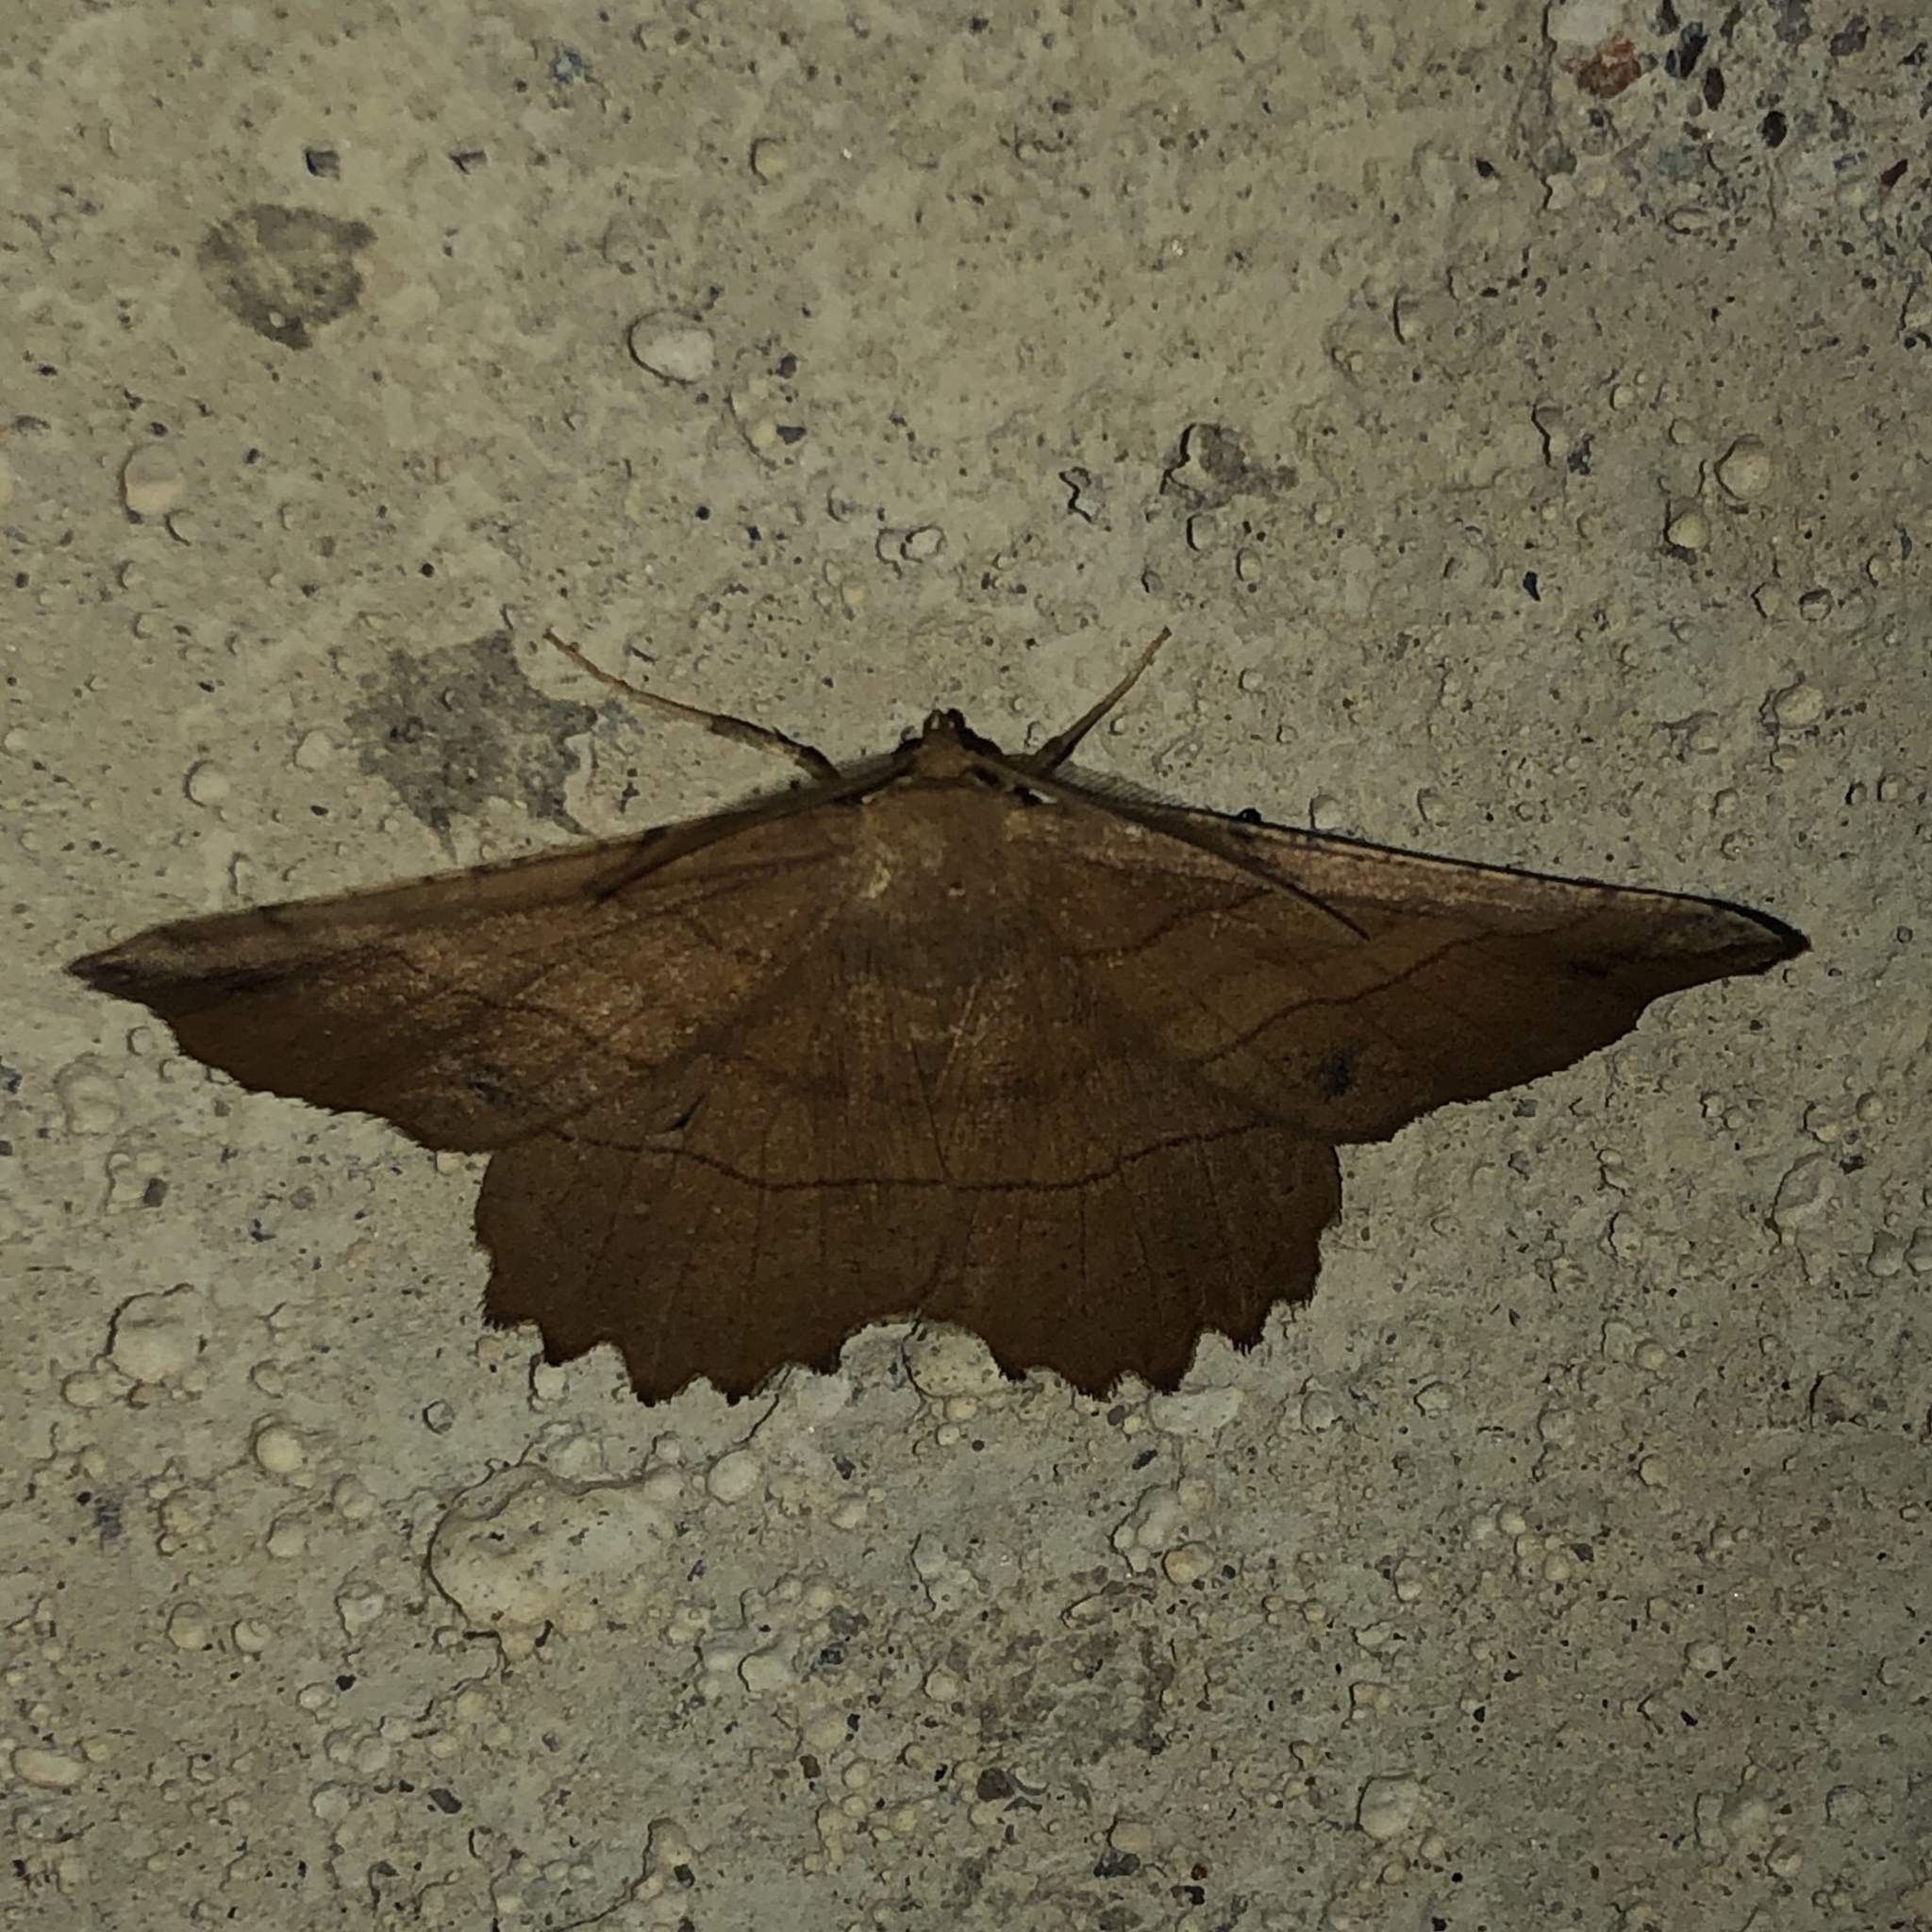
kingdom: Animalia
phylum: Arthropoda
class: Insecta
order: Lepidoptera
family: Geometridae
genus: Euchlaena
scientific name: Euchlaena johnsonaria
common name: Johnson's euchlaena
